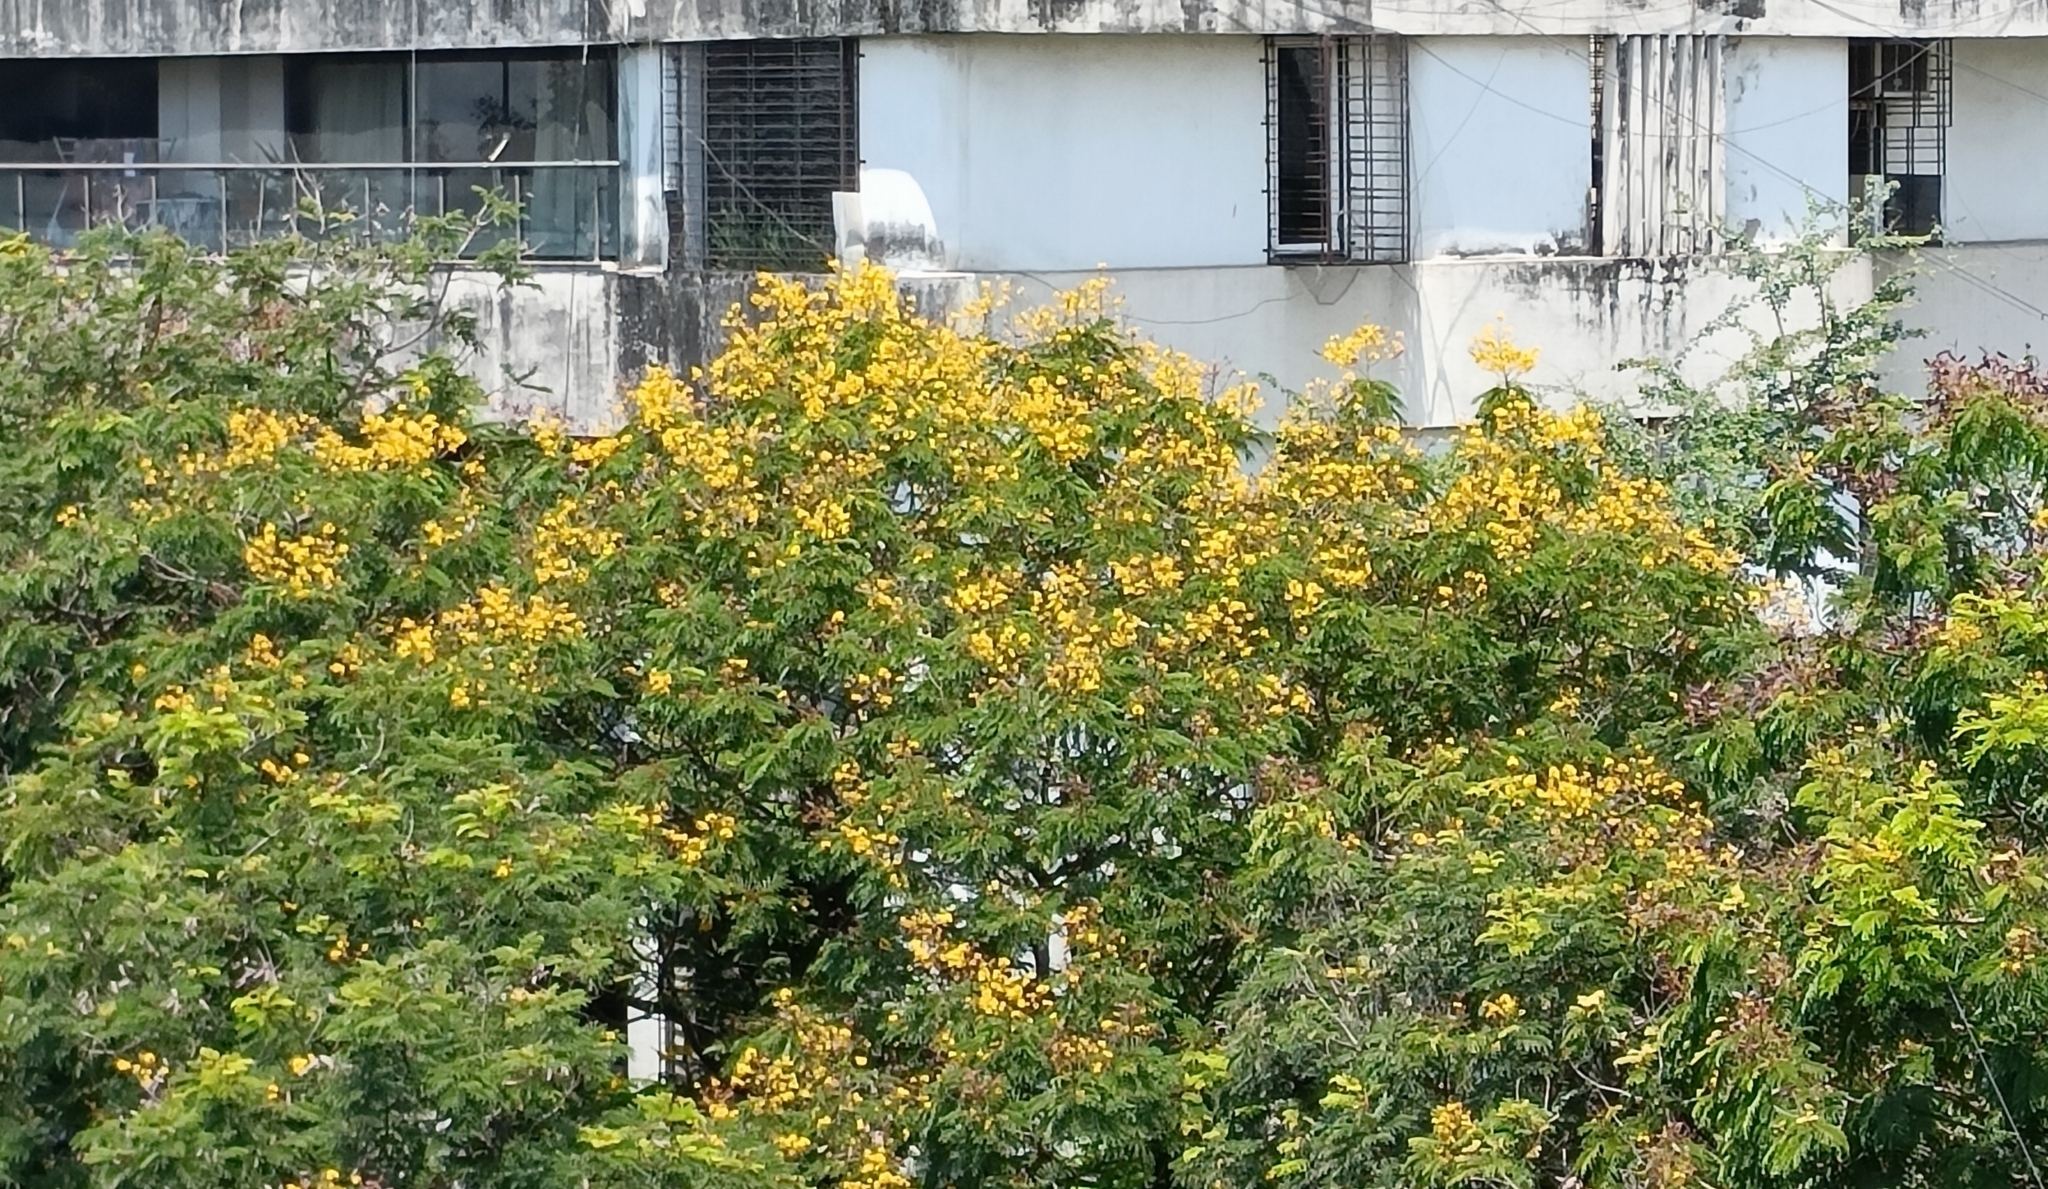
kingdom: Plantae
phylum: Tracheophyta
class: Magnoliopsida
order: Fabales
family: Fabaceae
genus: Peltophorum
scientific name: Peltophorum pterocarpum
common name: Yellow flame
